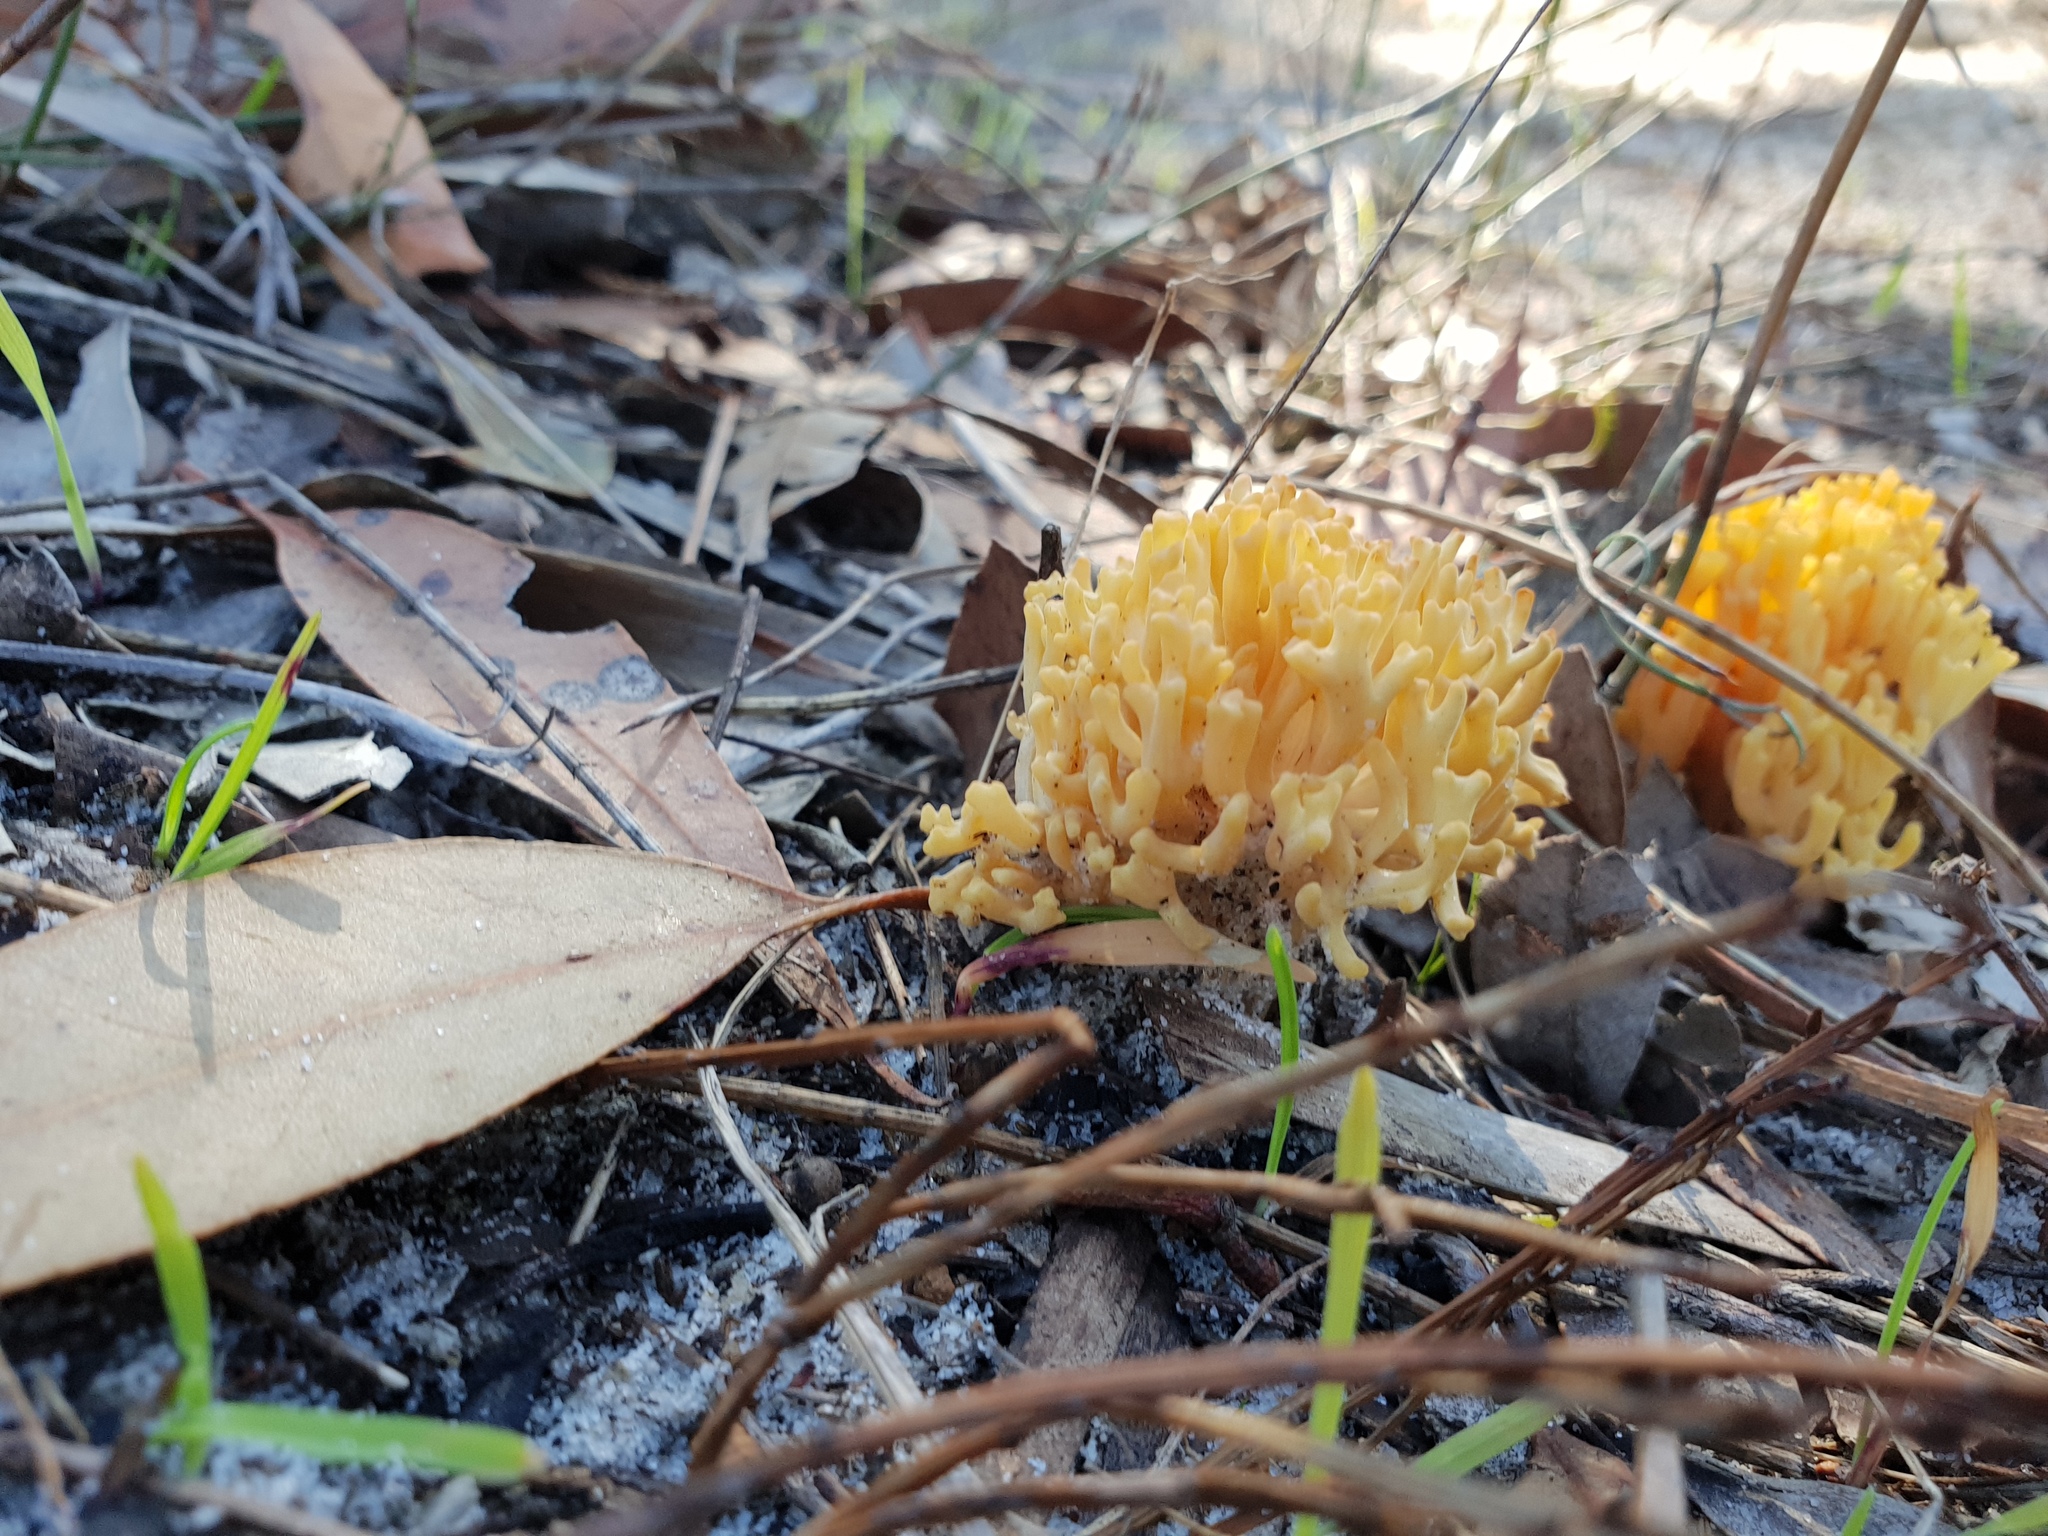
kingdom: Fungi
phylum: Basidiomycota
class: Agaricomycetes
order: Gomphales
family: Gomphaceae
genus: Ramaria
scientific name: Ramaria lorithamnus
